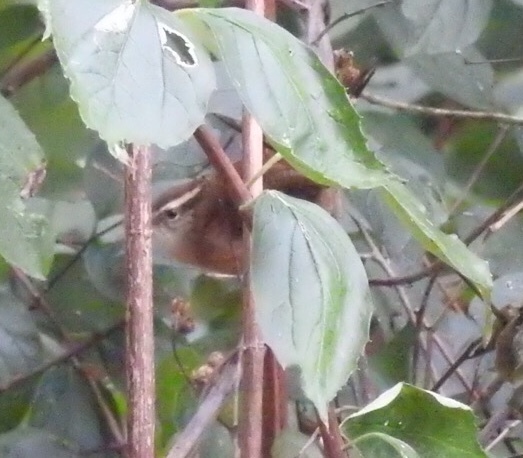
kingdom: Animalia
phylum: Chordata
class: Aves
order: Passeriformes
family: Troglodytidae
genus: Thryothorus
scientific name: Thryothorus ludovicianus
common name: Carolina wren
